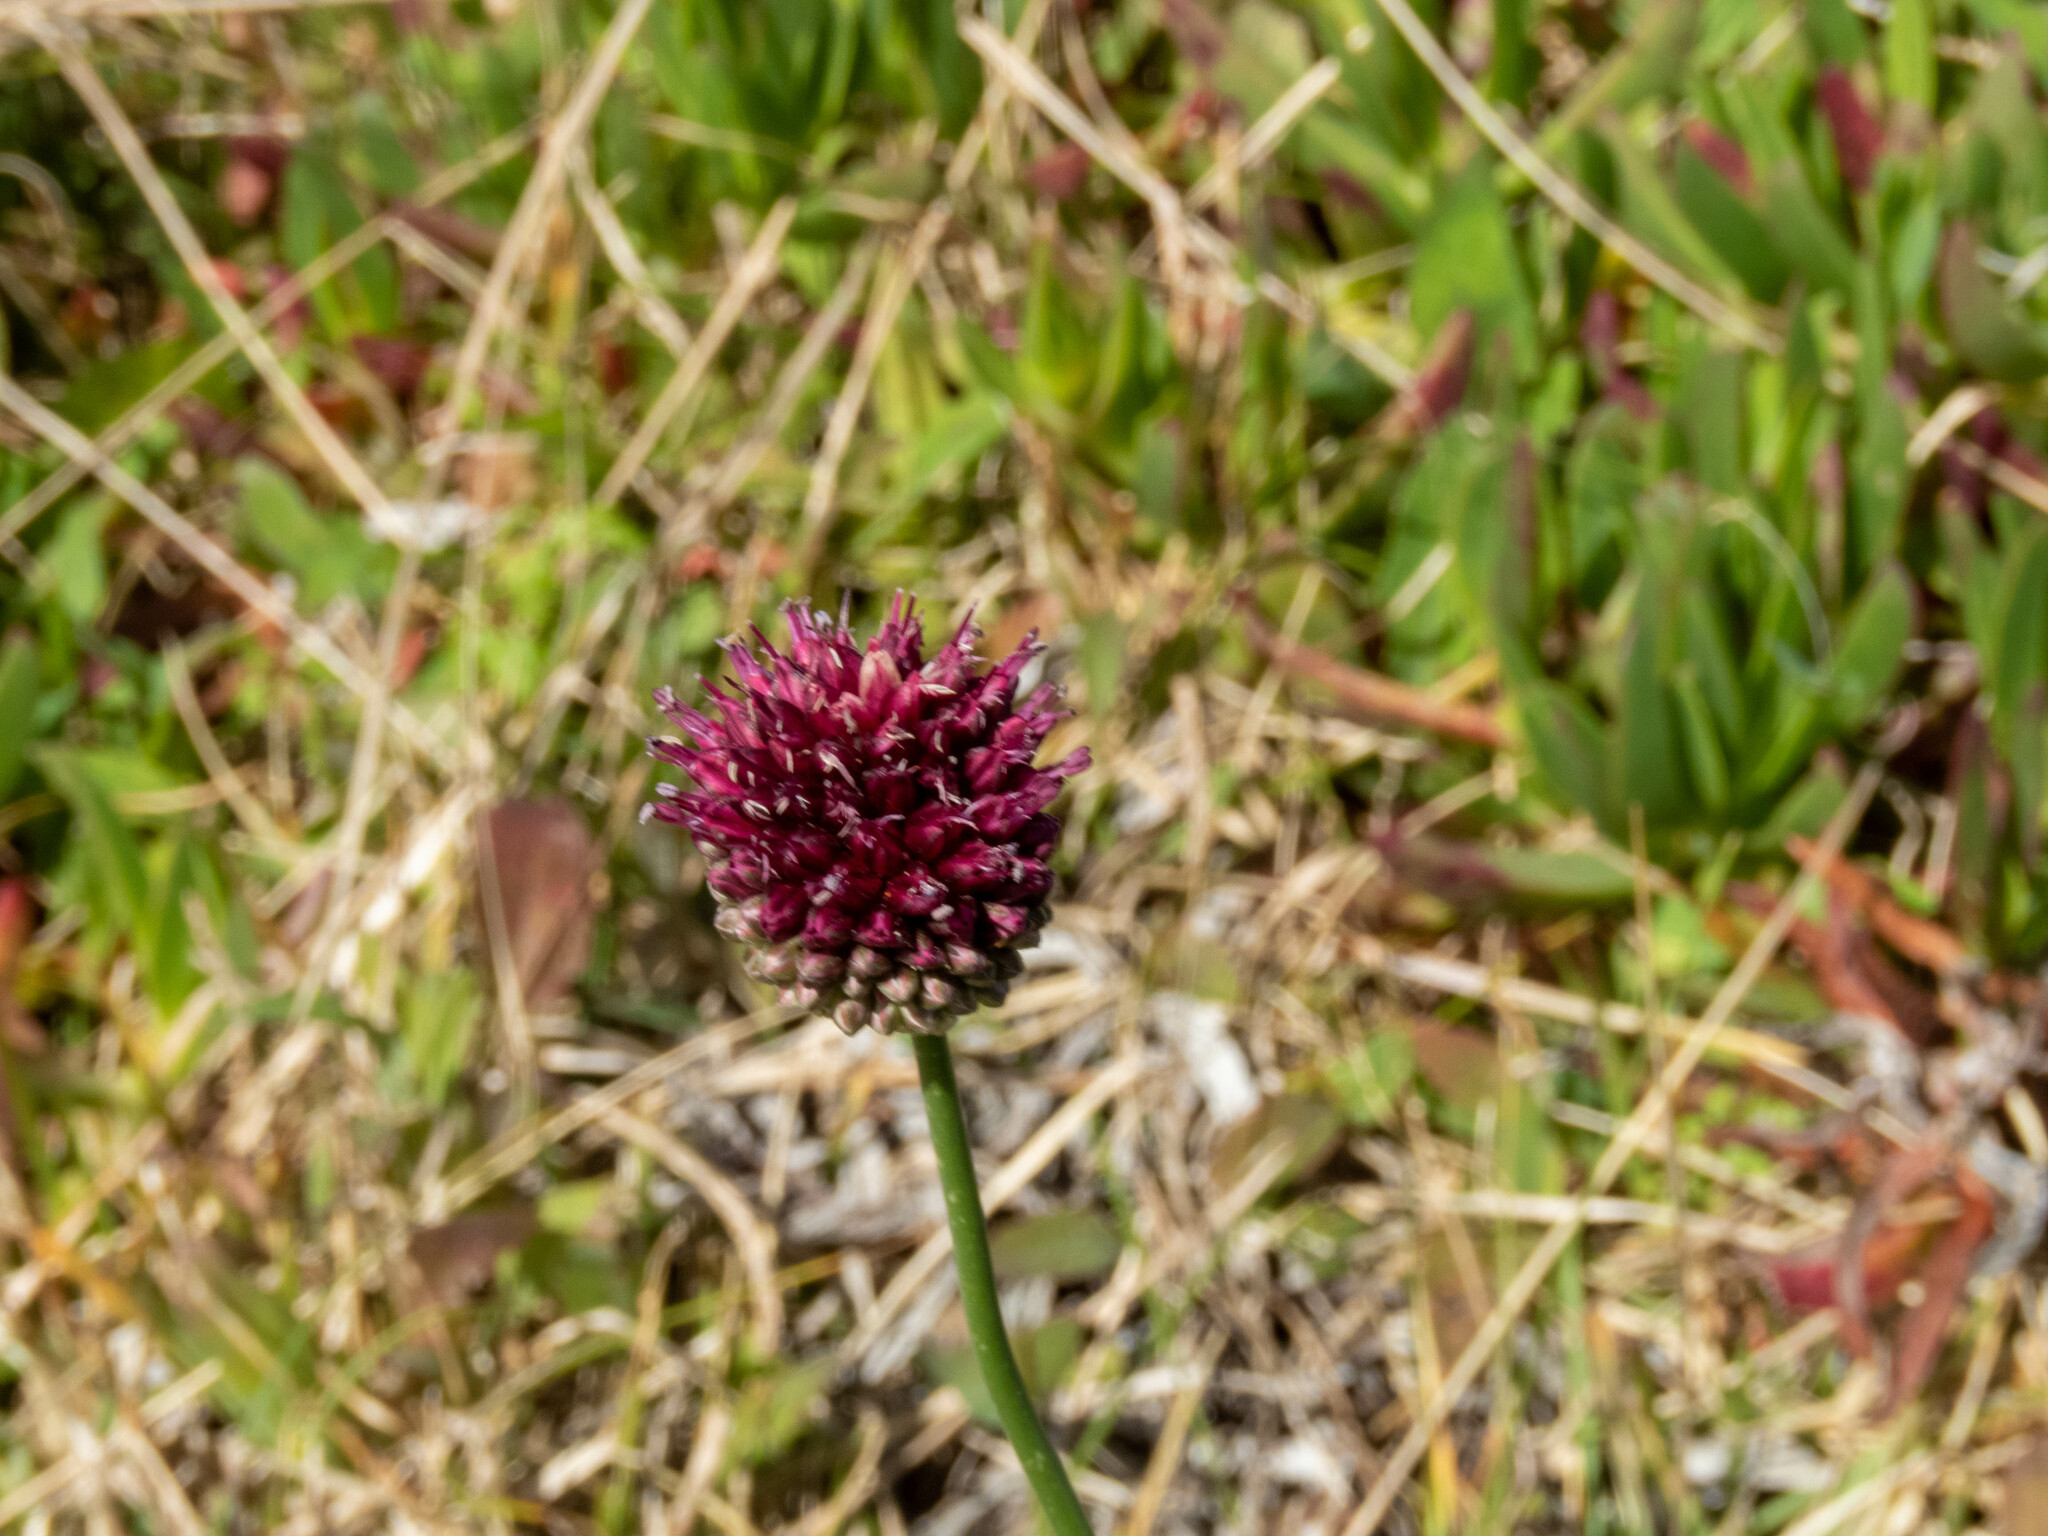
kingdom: Plantae
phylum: Tracheophyta
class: Liliopsida
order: Asparagales
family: Amaryllidaceae
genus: Allium
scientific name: Allium sphaerocephalon
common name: Round-headed leek
